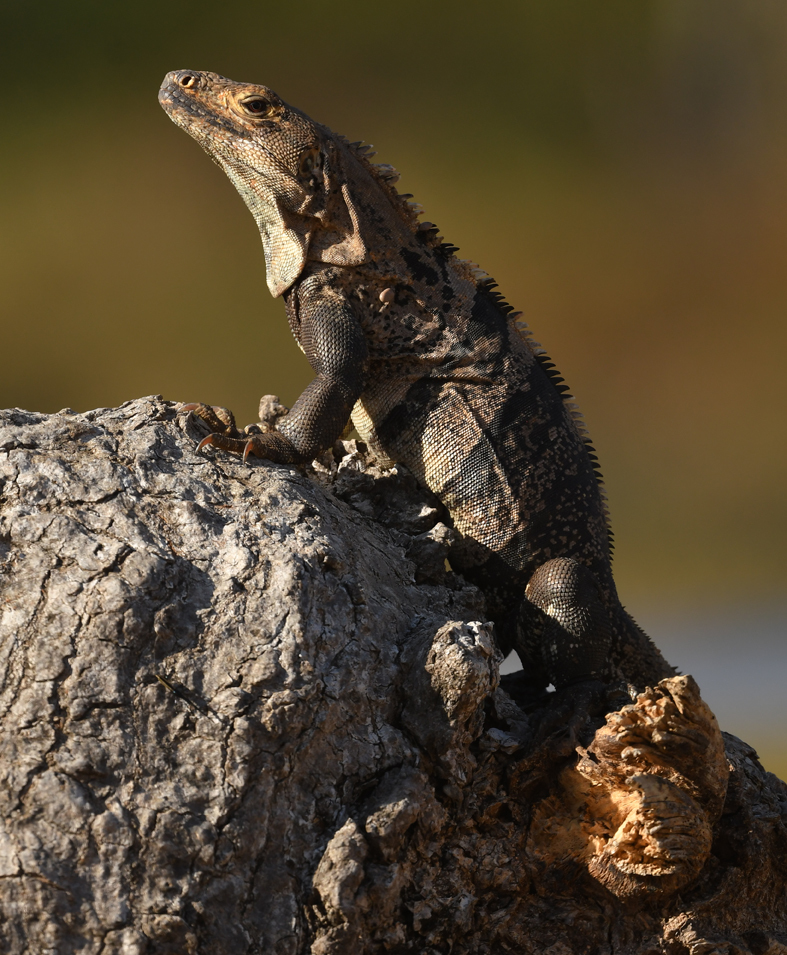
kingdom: Animalia
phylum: Chordata
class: Squamata
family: Iguanidae
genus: Ctenosaura
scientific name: Ctenosaura similis
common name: Black spiny-tailed iguana
